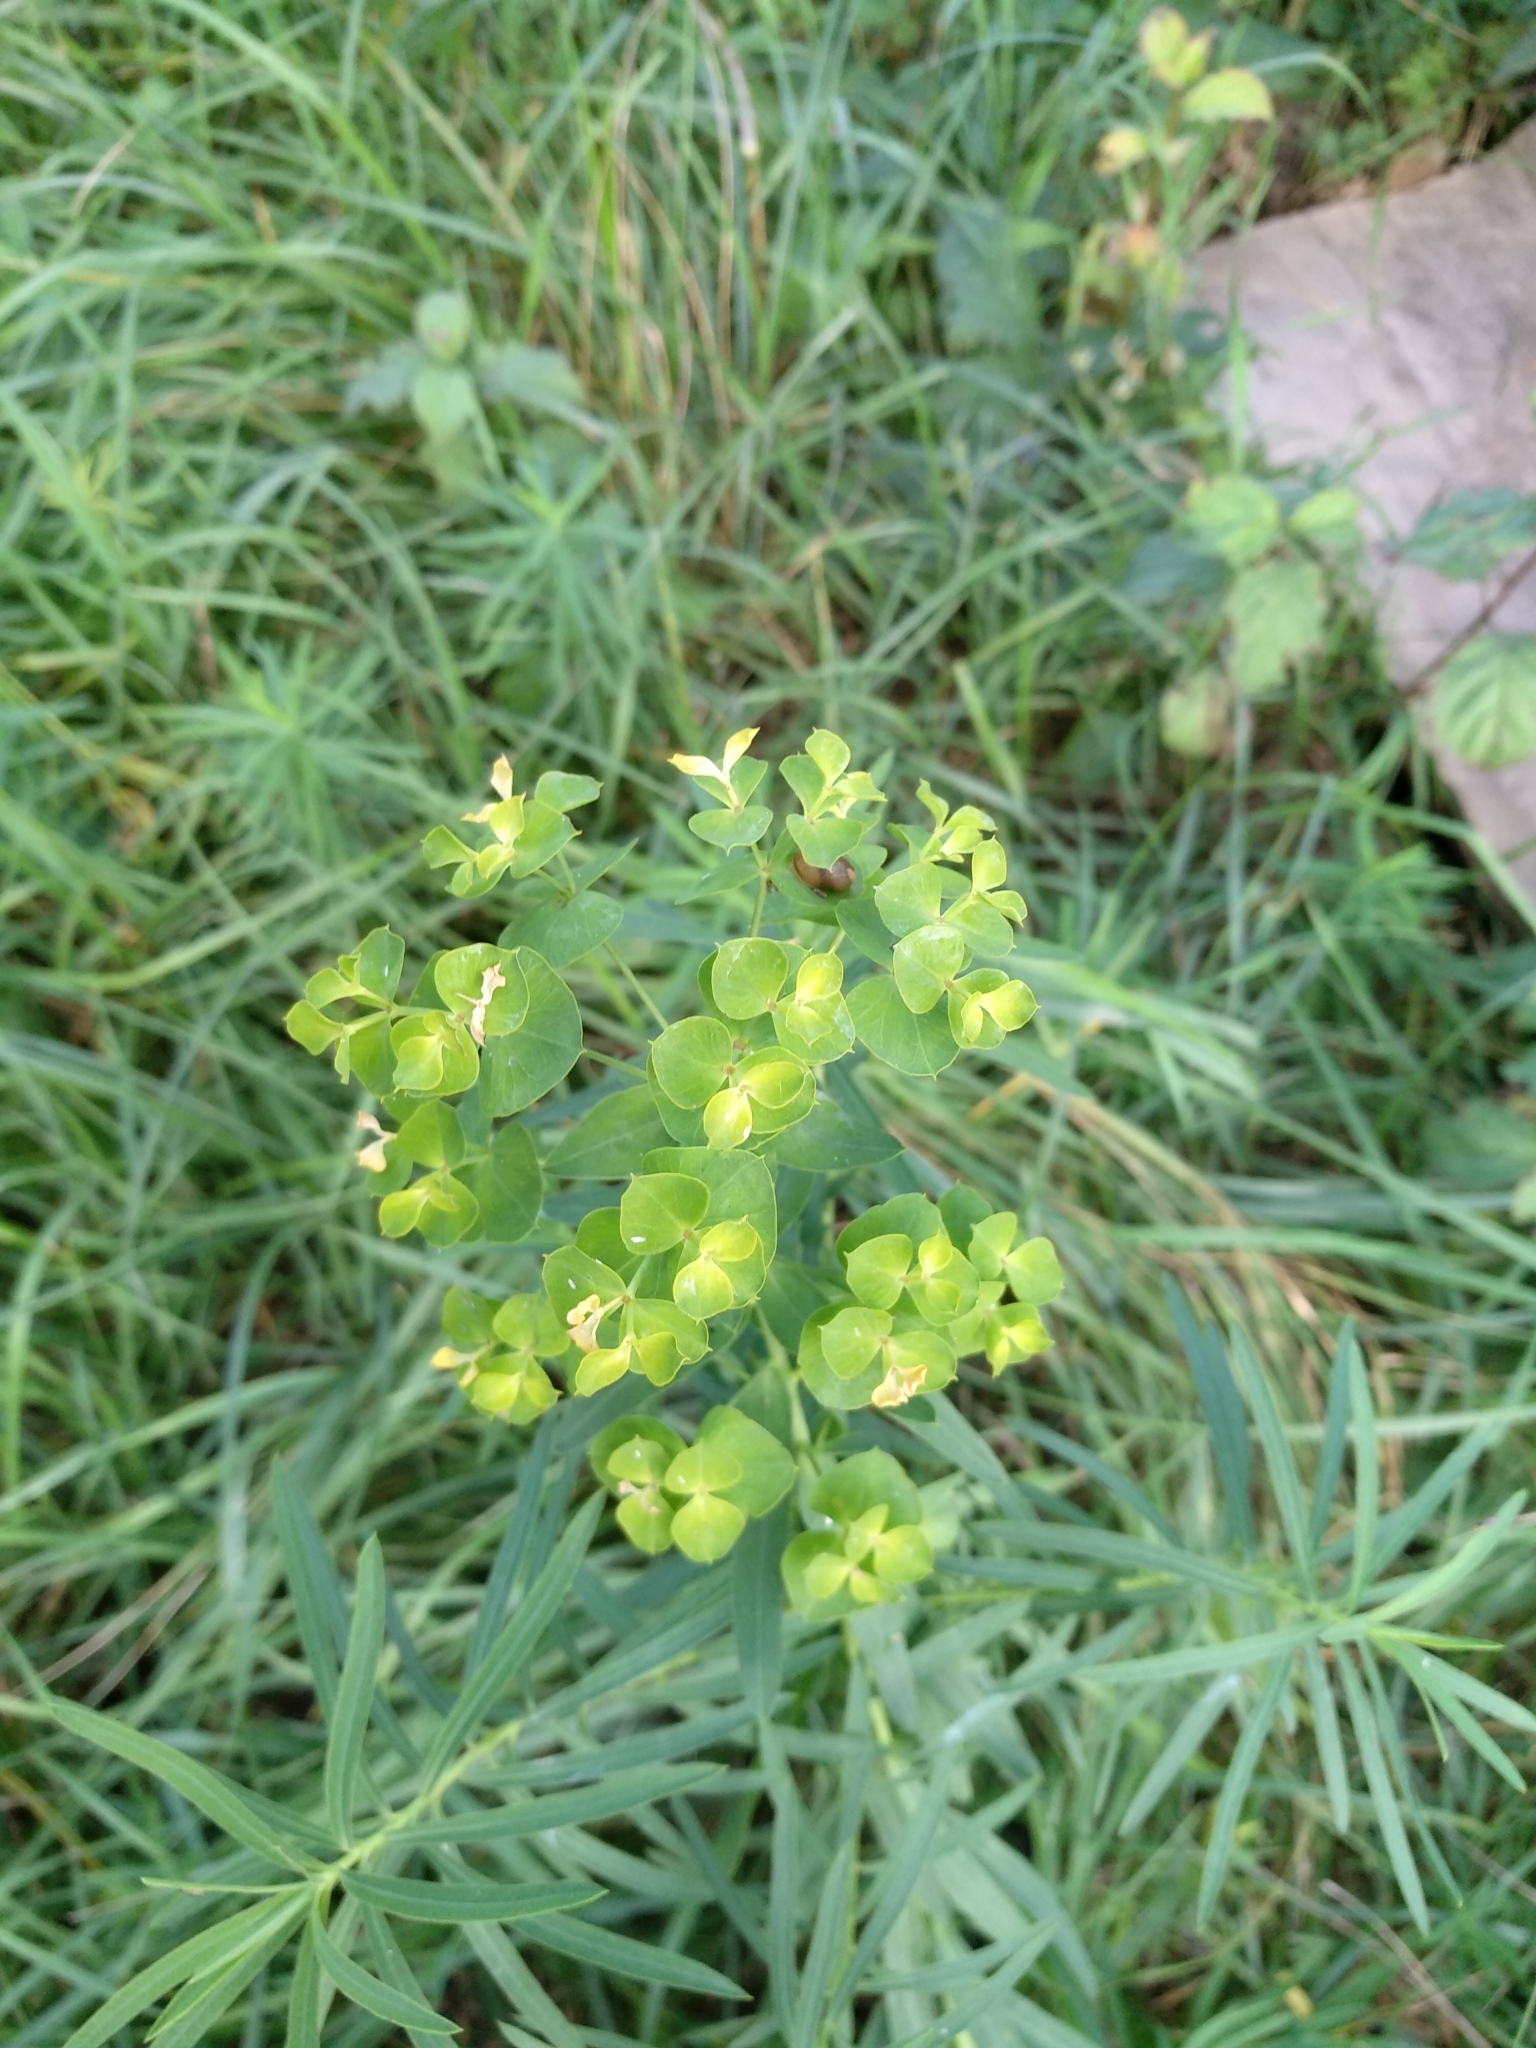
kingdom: Plantae
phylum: Tracheophyta
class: Magnoliopsida
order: Malpighiales
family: Euphorbiaceae
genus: Euphorbia
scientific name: Euphorbia virgata
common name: Leafy spurge
